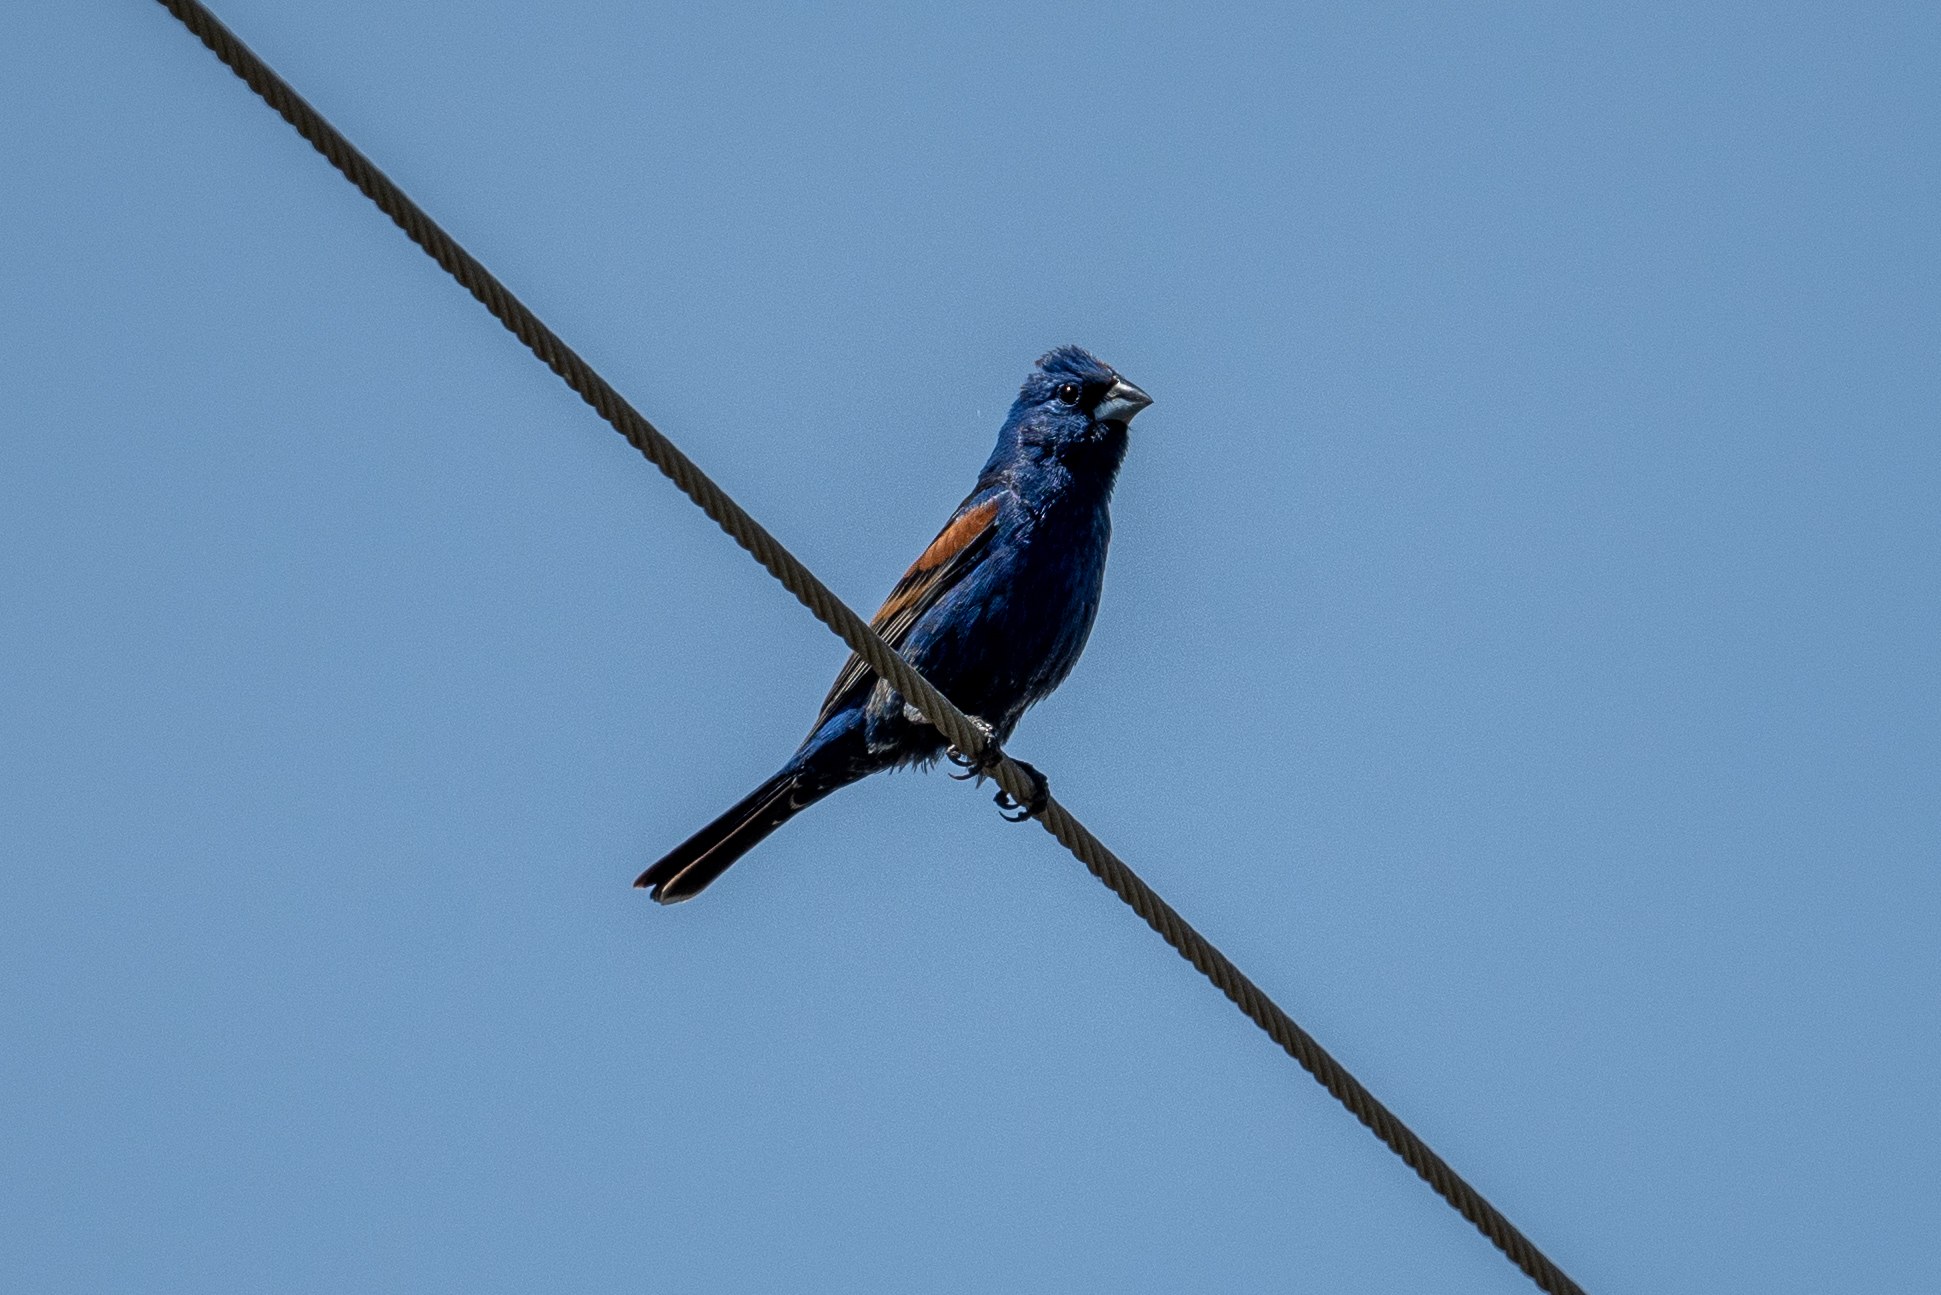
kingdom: Animalia
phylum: Chordata
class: Aves
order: Passeriformes
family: Cardinalidae
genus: Passerina
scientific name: Passerina caerulea
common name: Blue grosbeak
